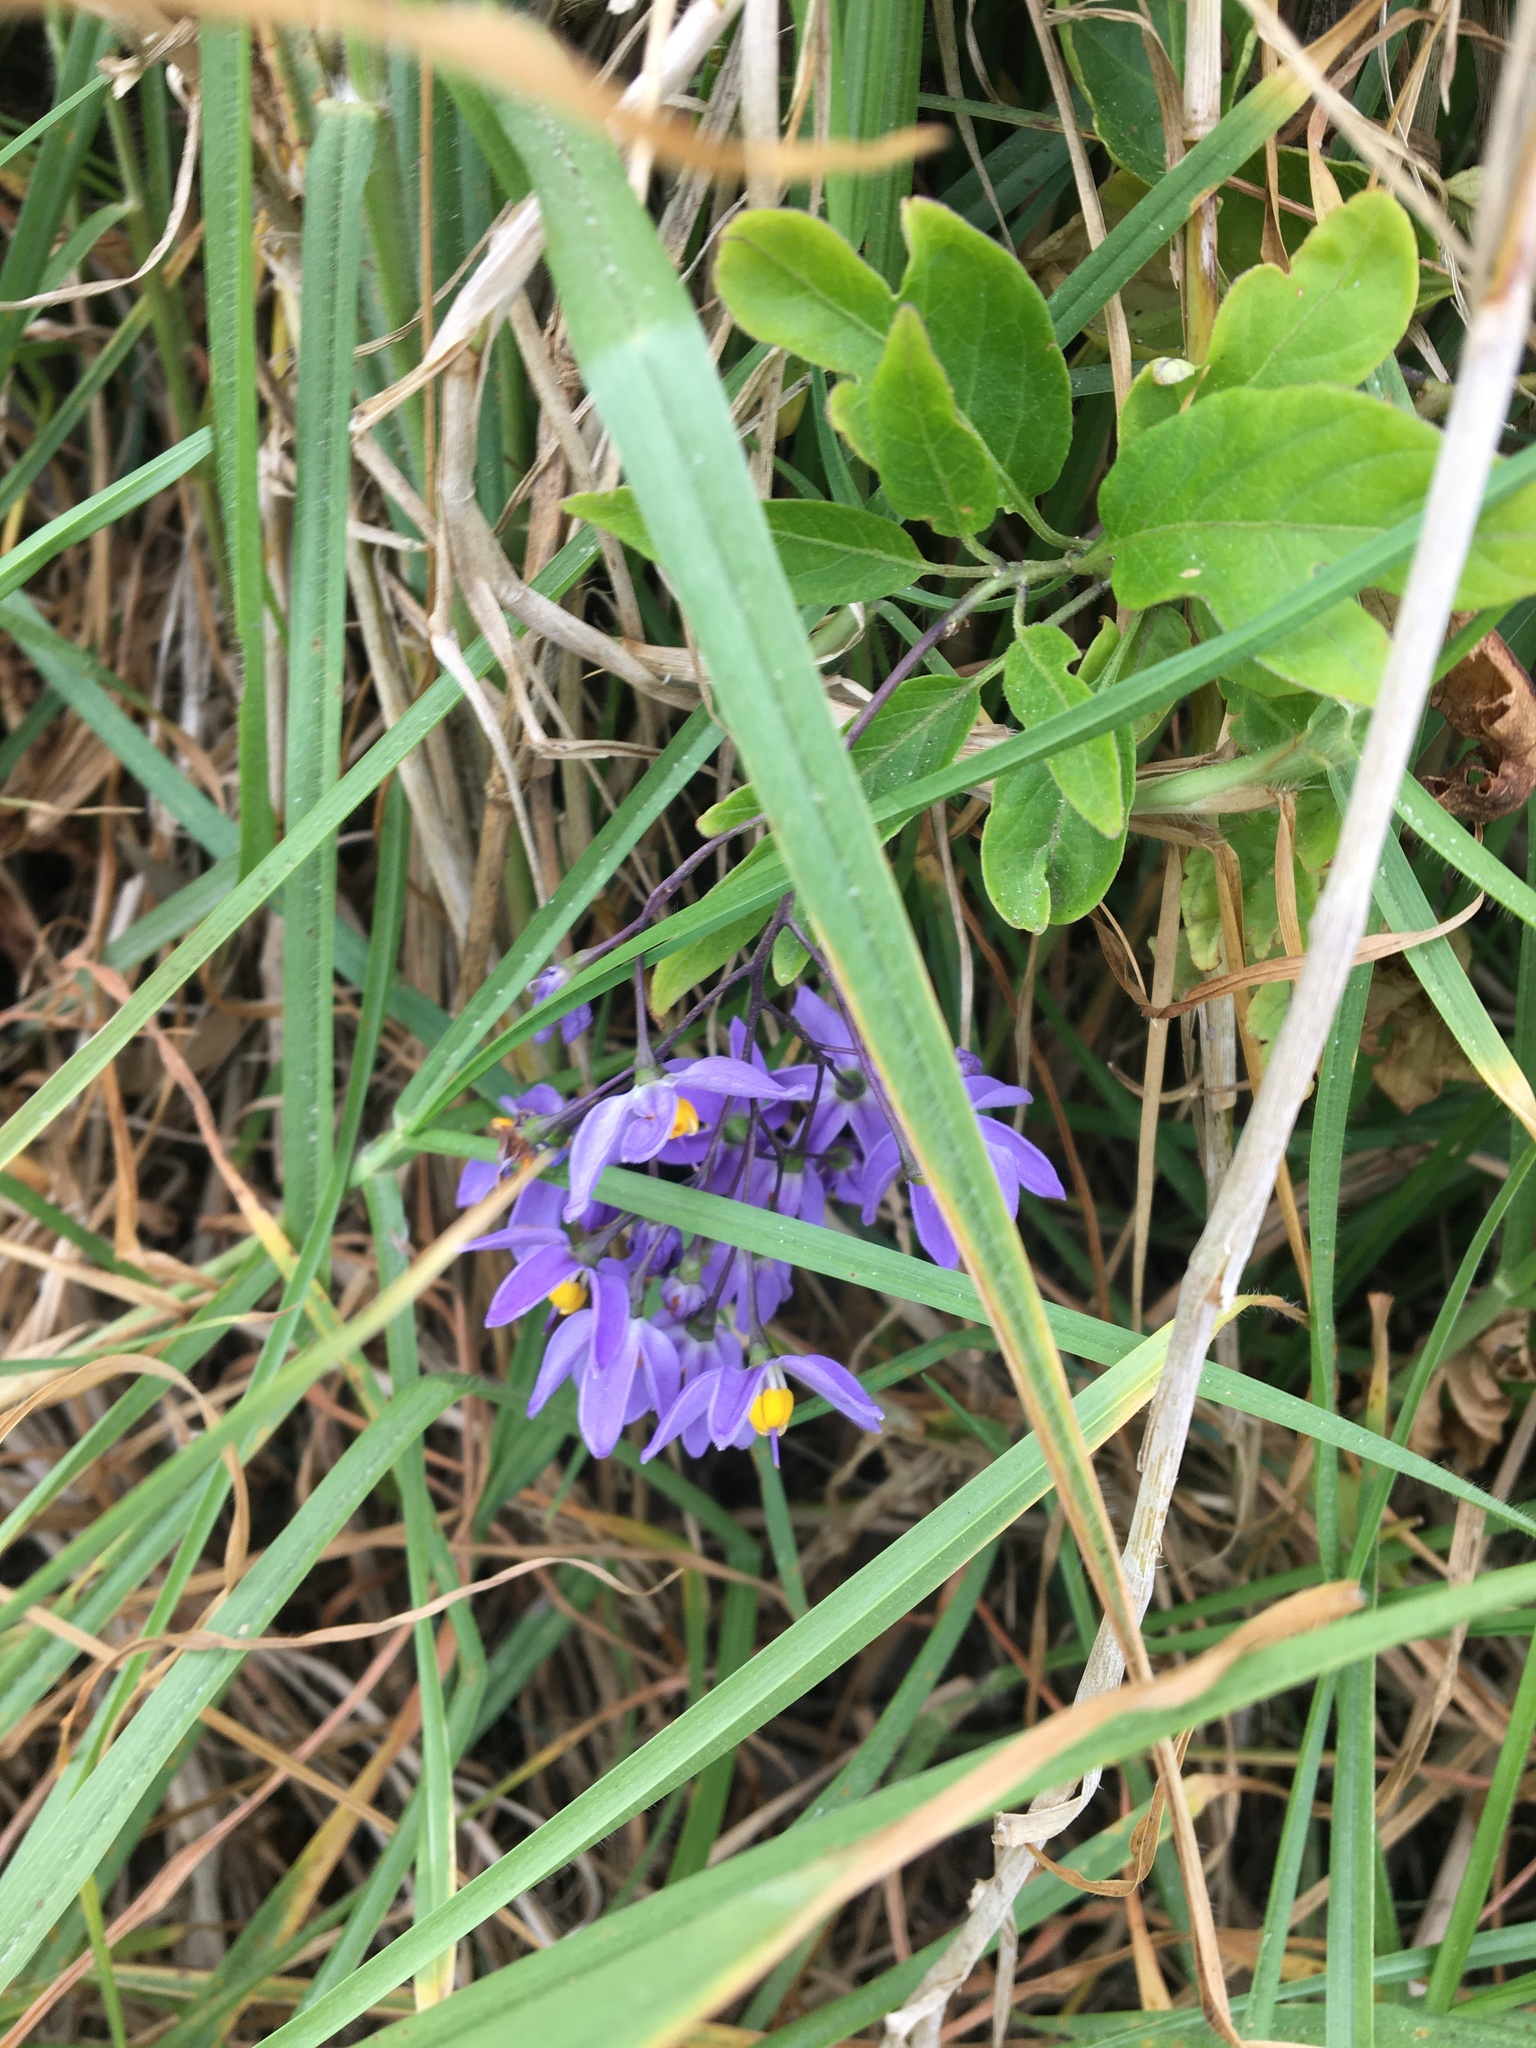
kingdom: Plantae
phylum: Tracheophyta
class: Magnoliopsida
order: Solanales
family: Solanaceae
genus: Solanum
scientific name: Solanum seaforthianum
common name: Brazilian nightshade
